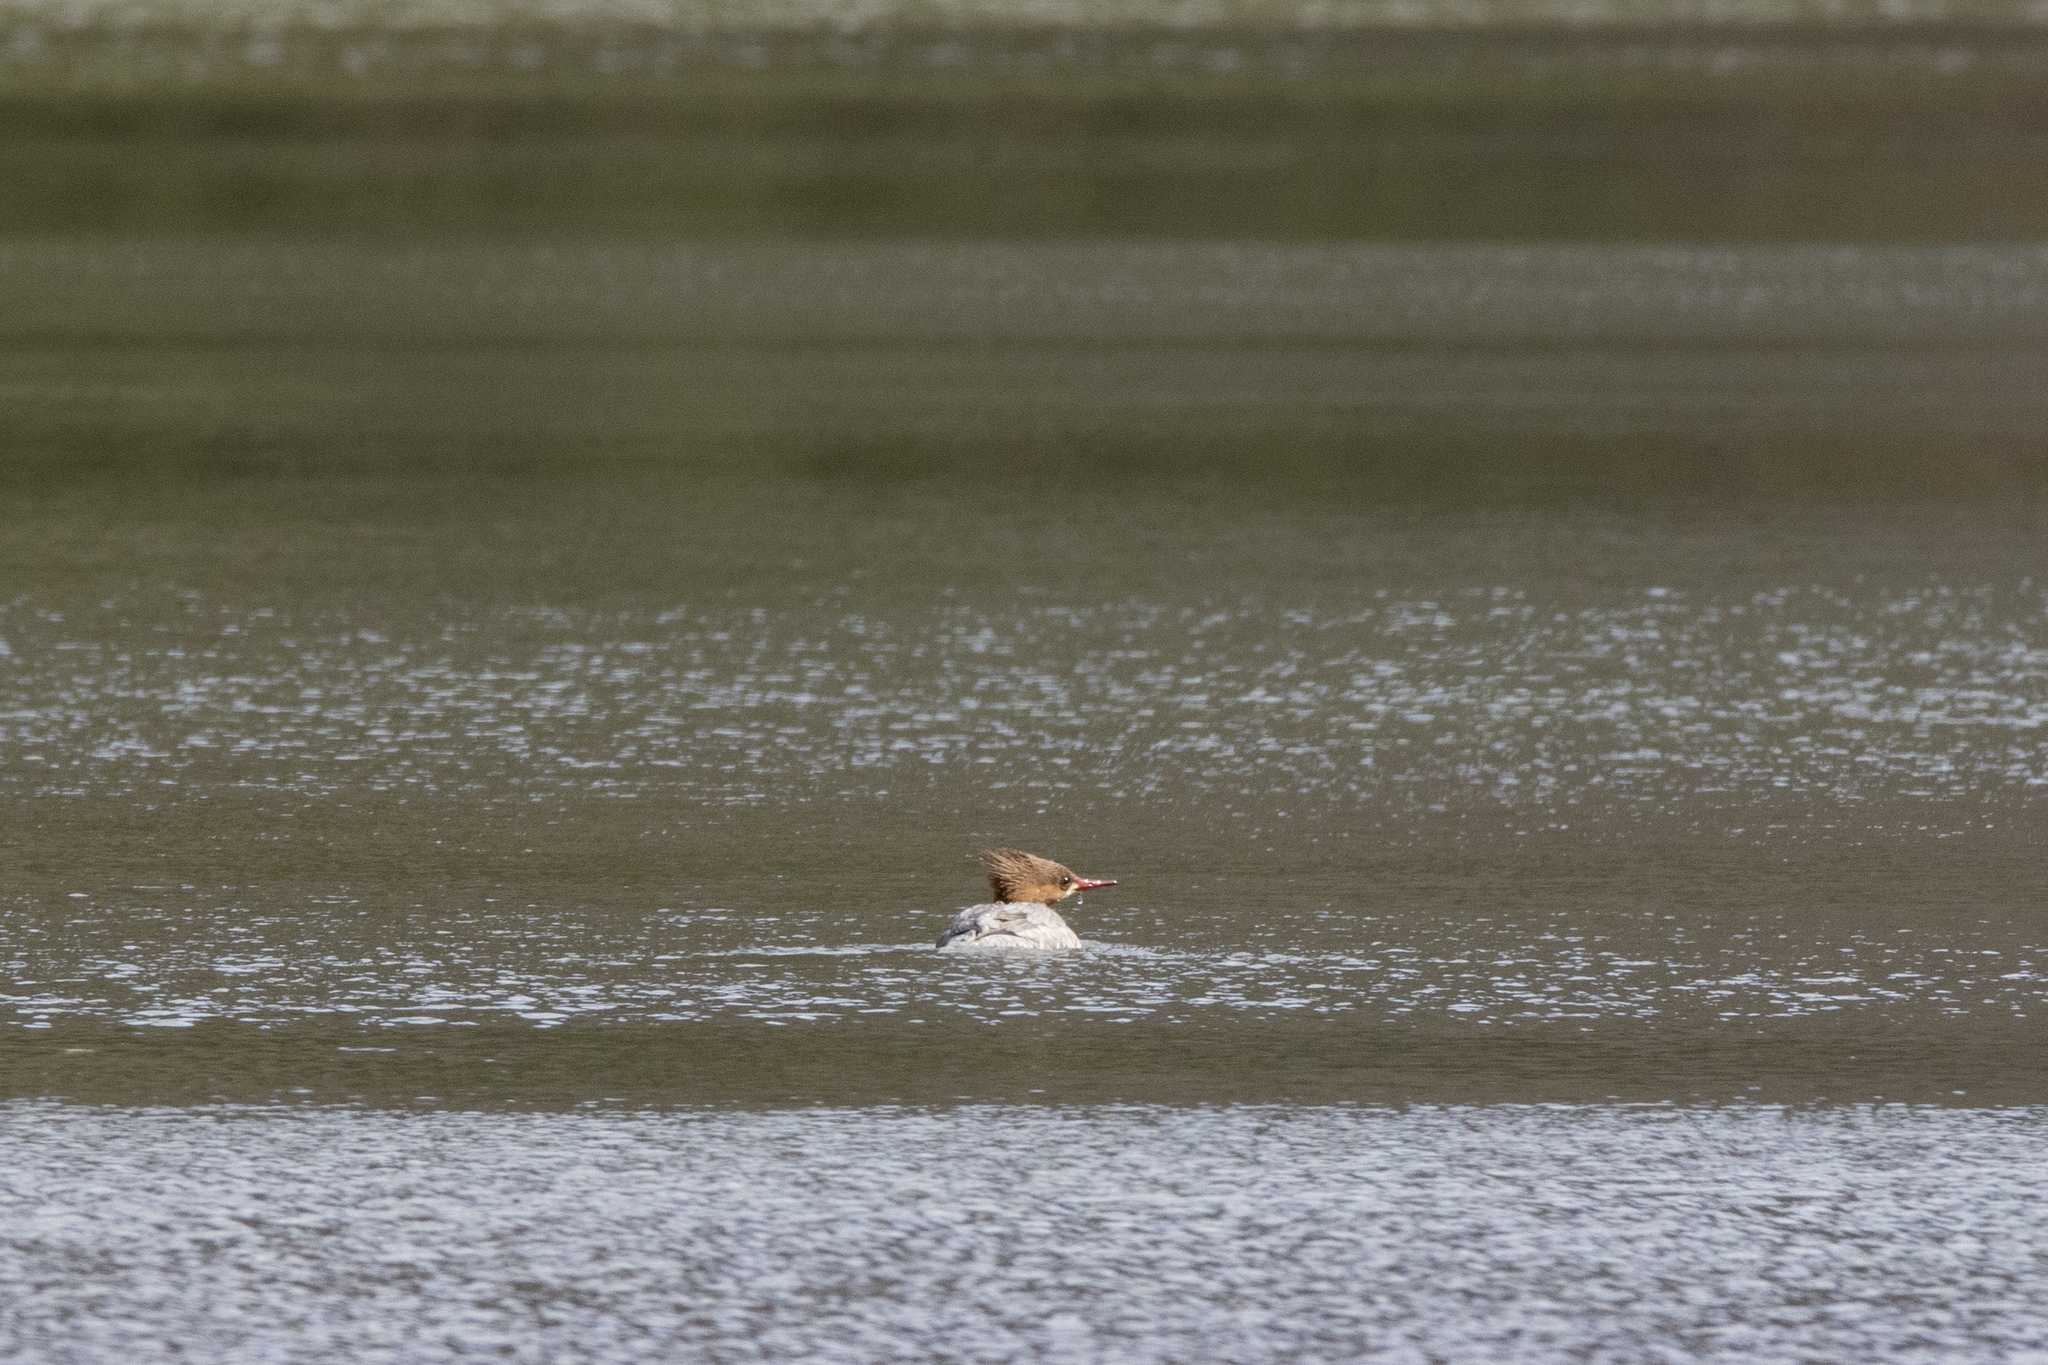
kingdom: Animalia
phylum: Chordata
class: Aves
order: Anseriformes
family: Anatidae
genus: Mergus
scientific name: Mergus merganser
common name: Common merganser
